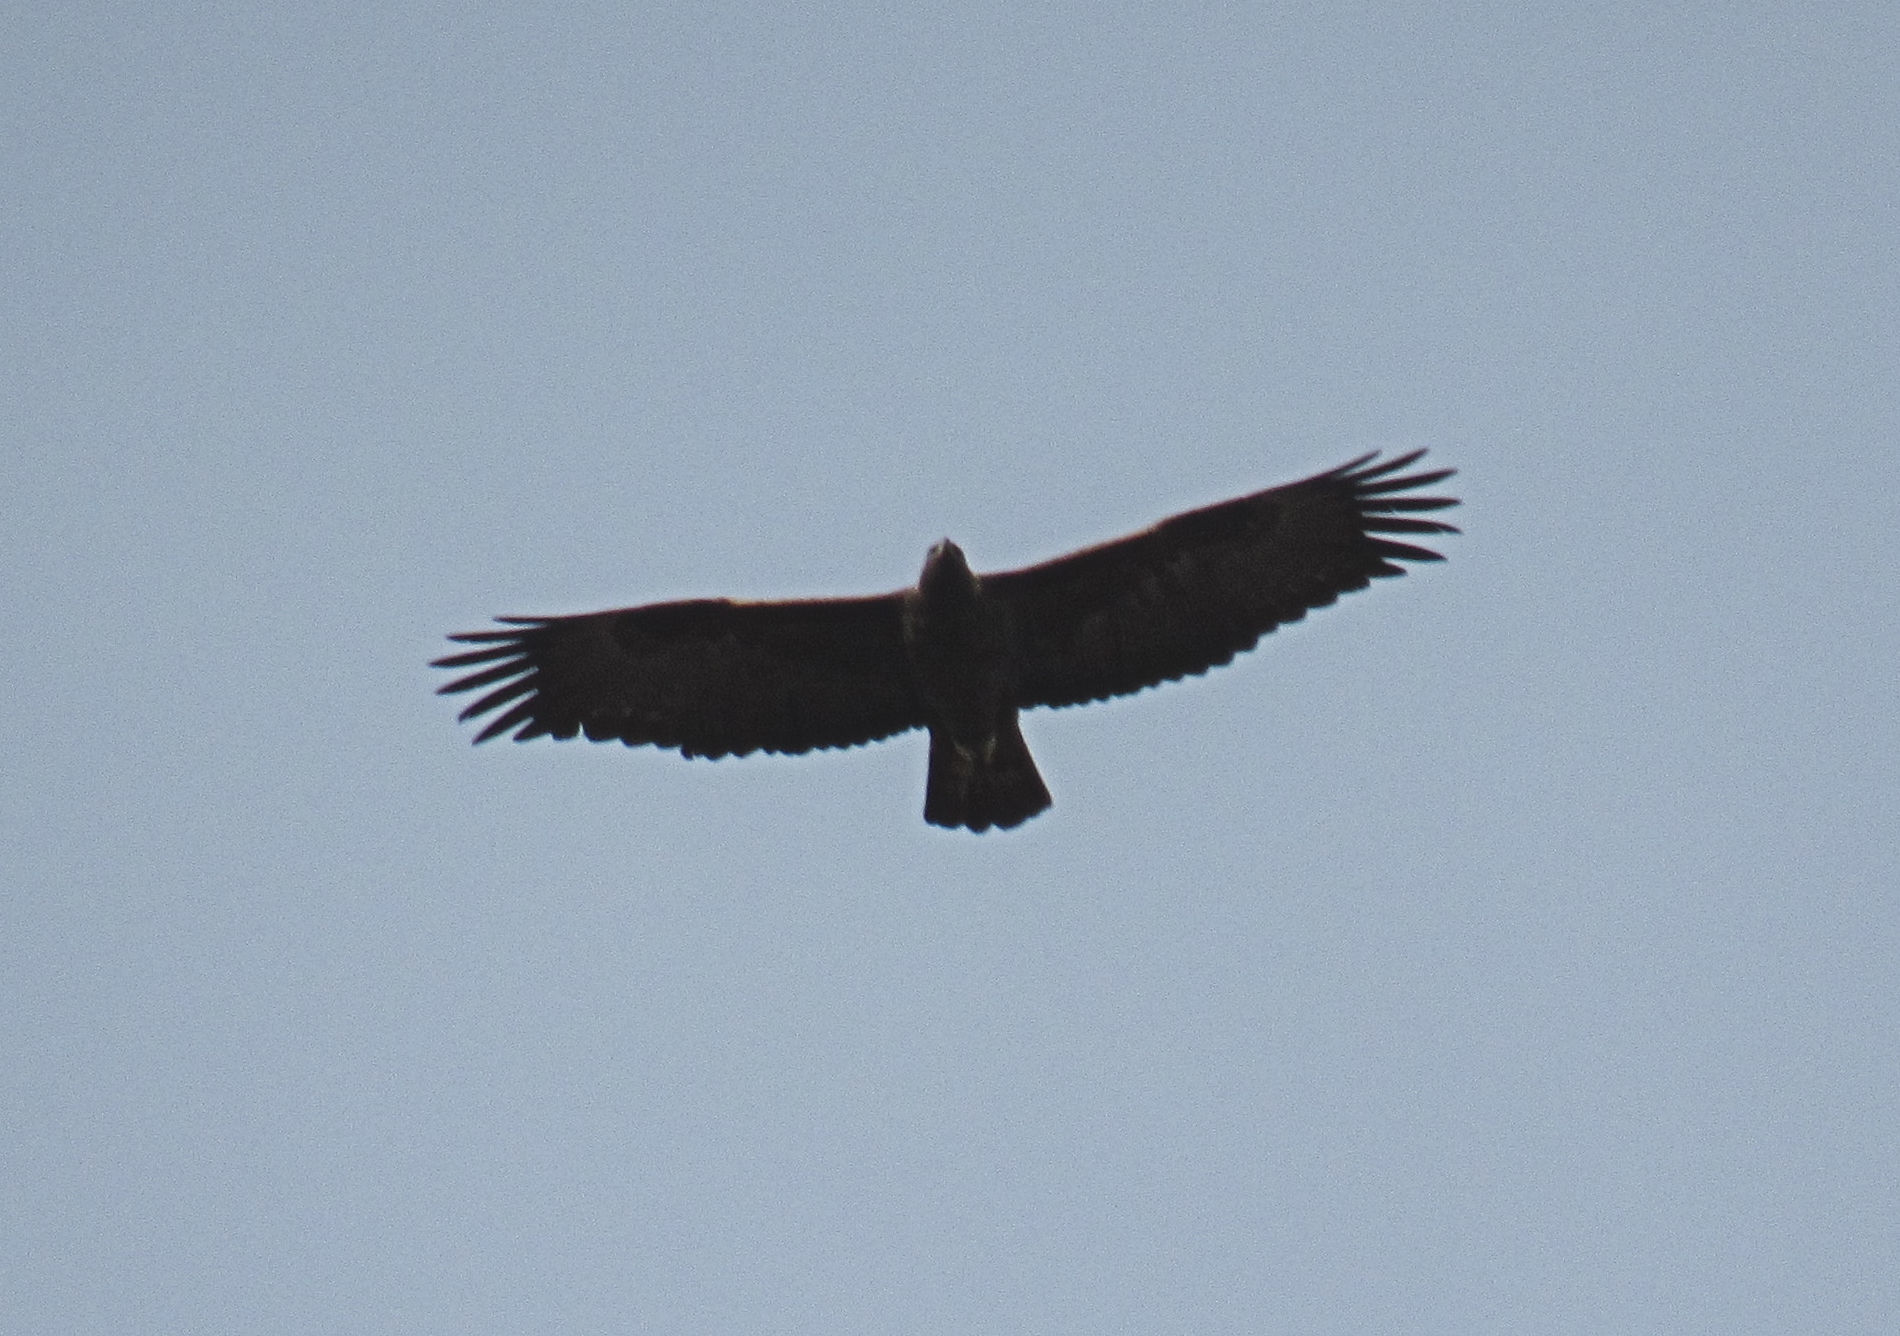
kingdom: Animalia
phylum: Chordata
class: Aves
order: Accipitriformes
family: Accipitridae
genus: Aquila
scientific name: Aquila chrysaetos
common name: Golden eagle
